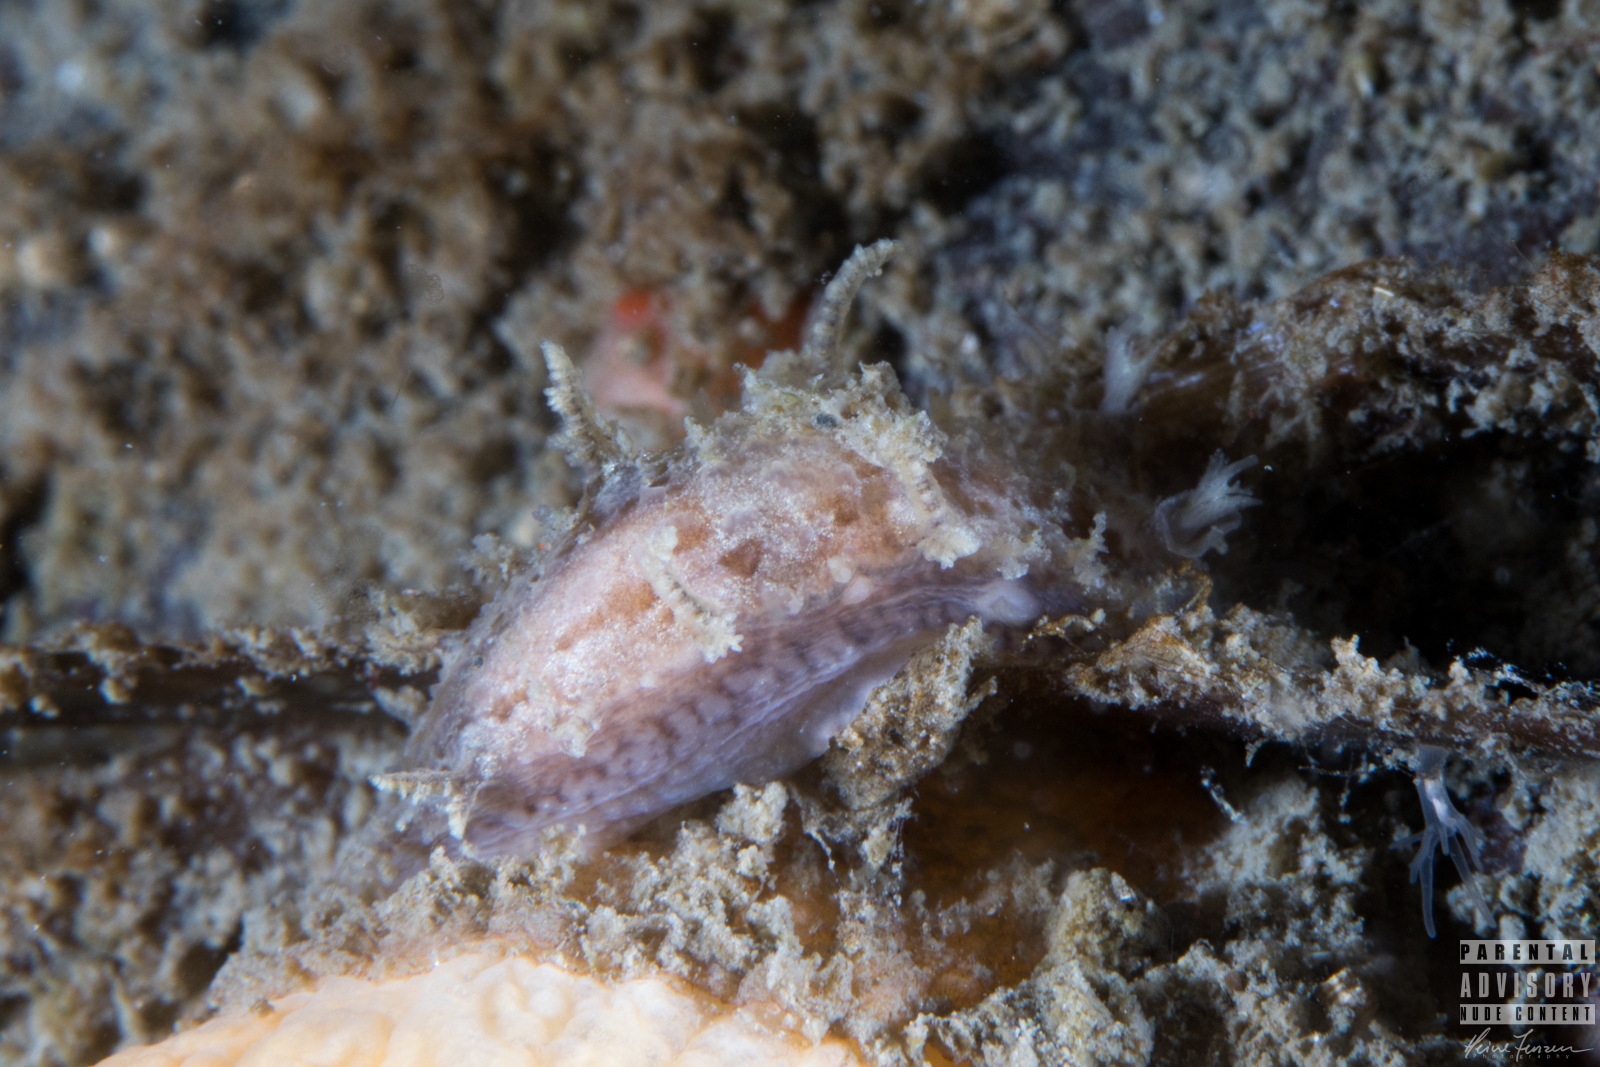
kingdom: Animalia
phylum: Mollusca
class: Gastropoda
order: Nudibranchia
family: Tritoniidae
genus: Duvaucelia
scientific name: Duvaucelia plebeia
